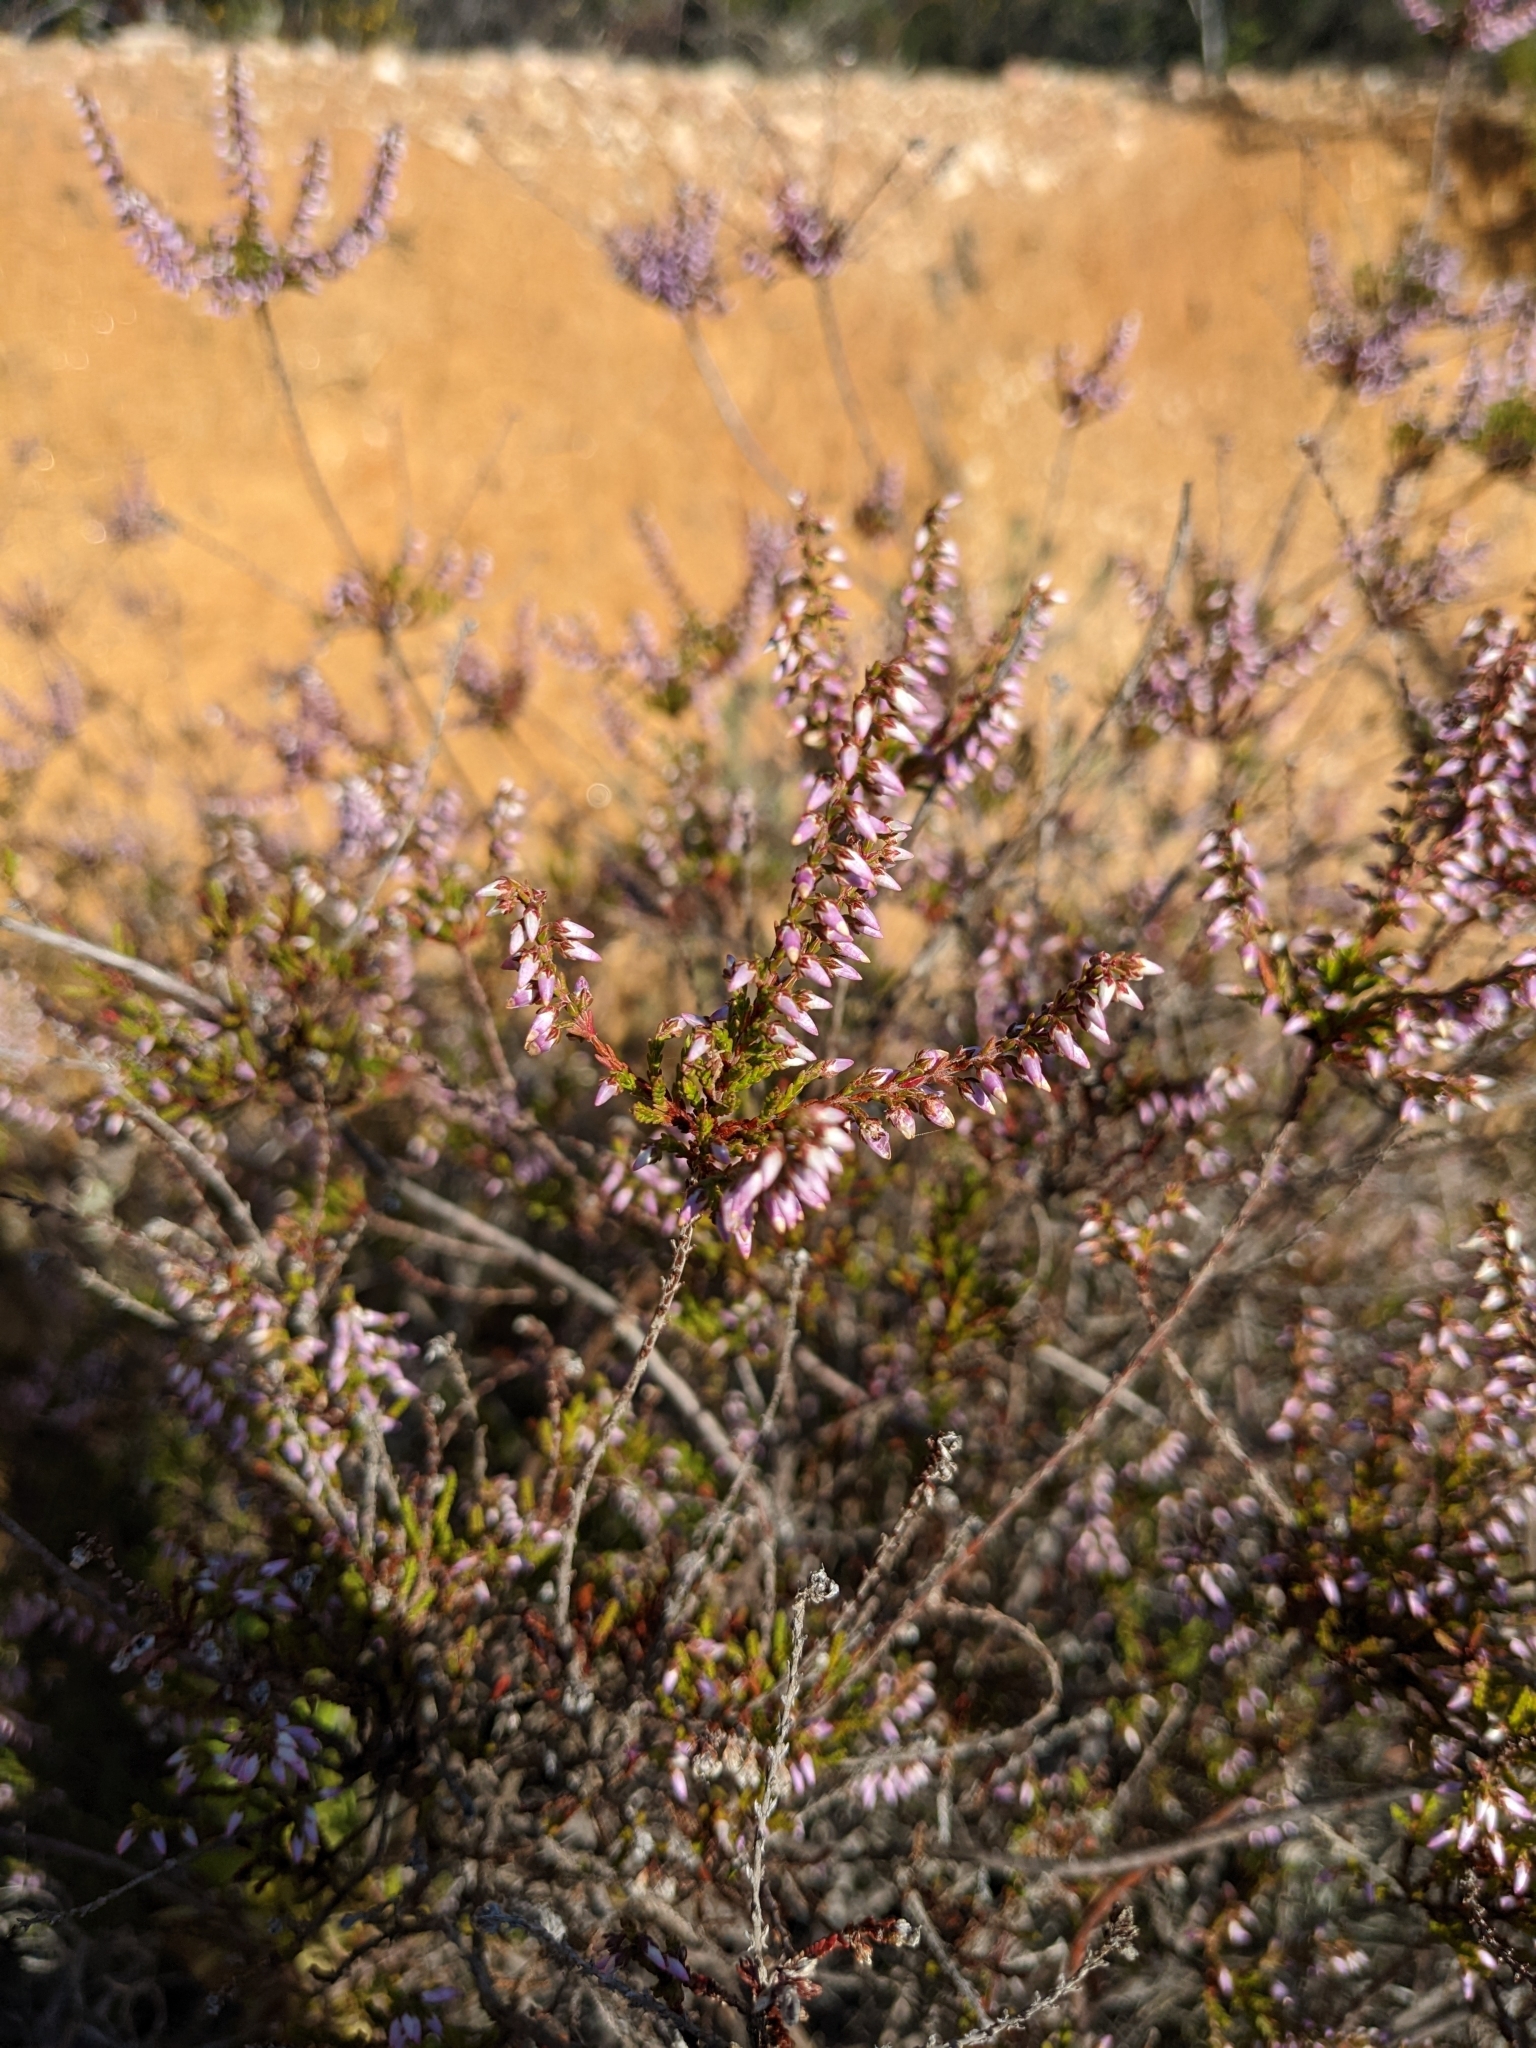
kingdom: Plantae
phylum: Tracheophyta
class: Magnoliopsida
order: Ericales
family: Ericaceae
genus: Calluna
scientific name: Calluna vulgaris
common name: Heather
